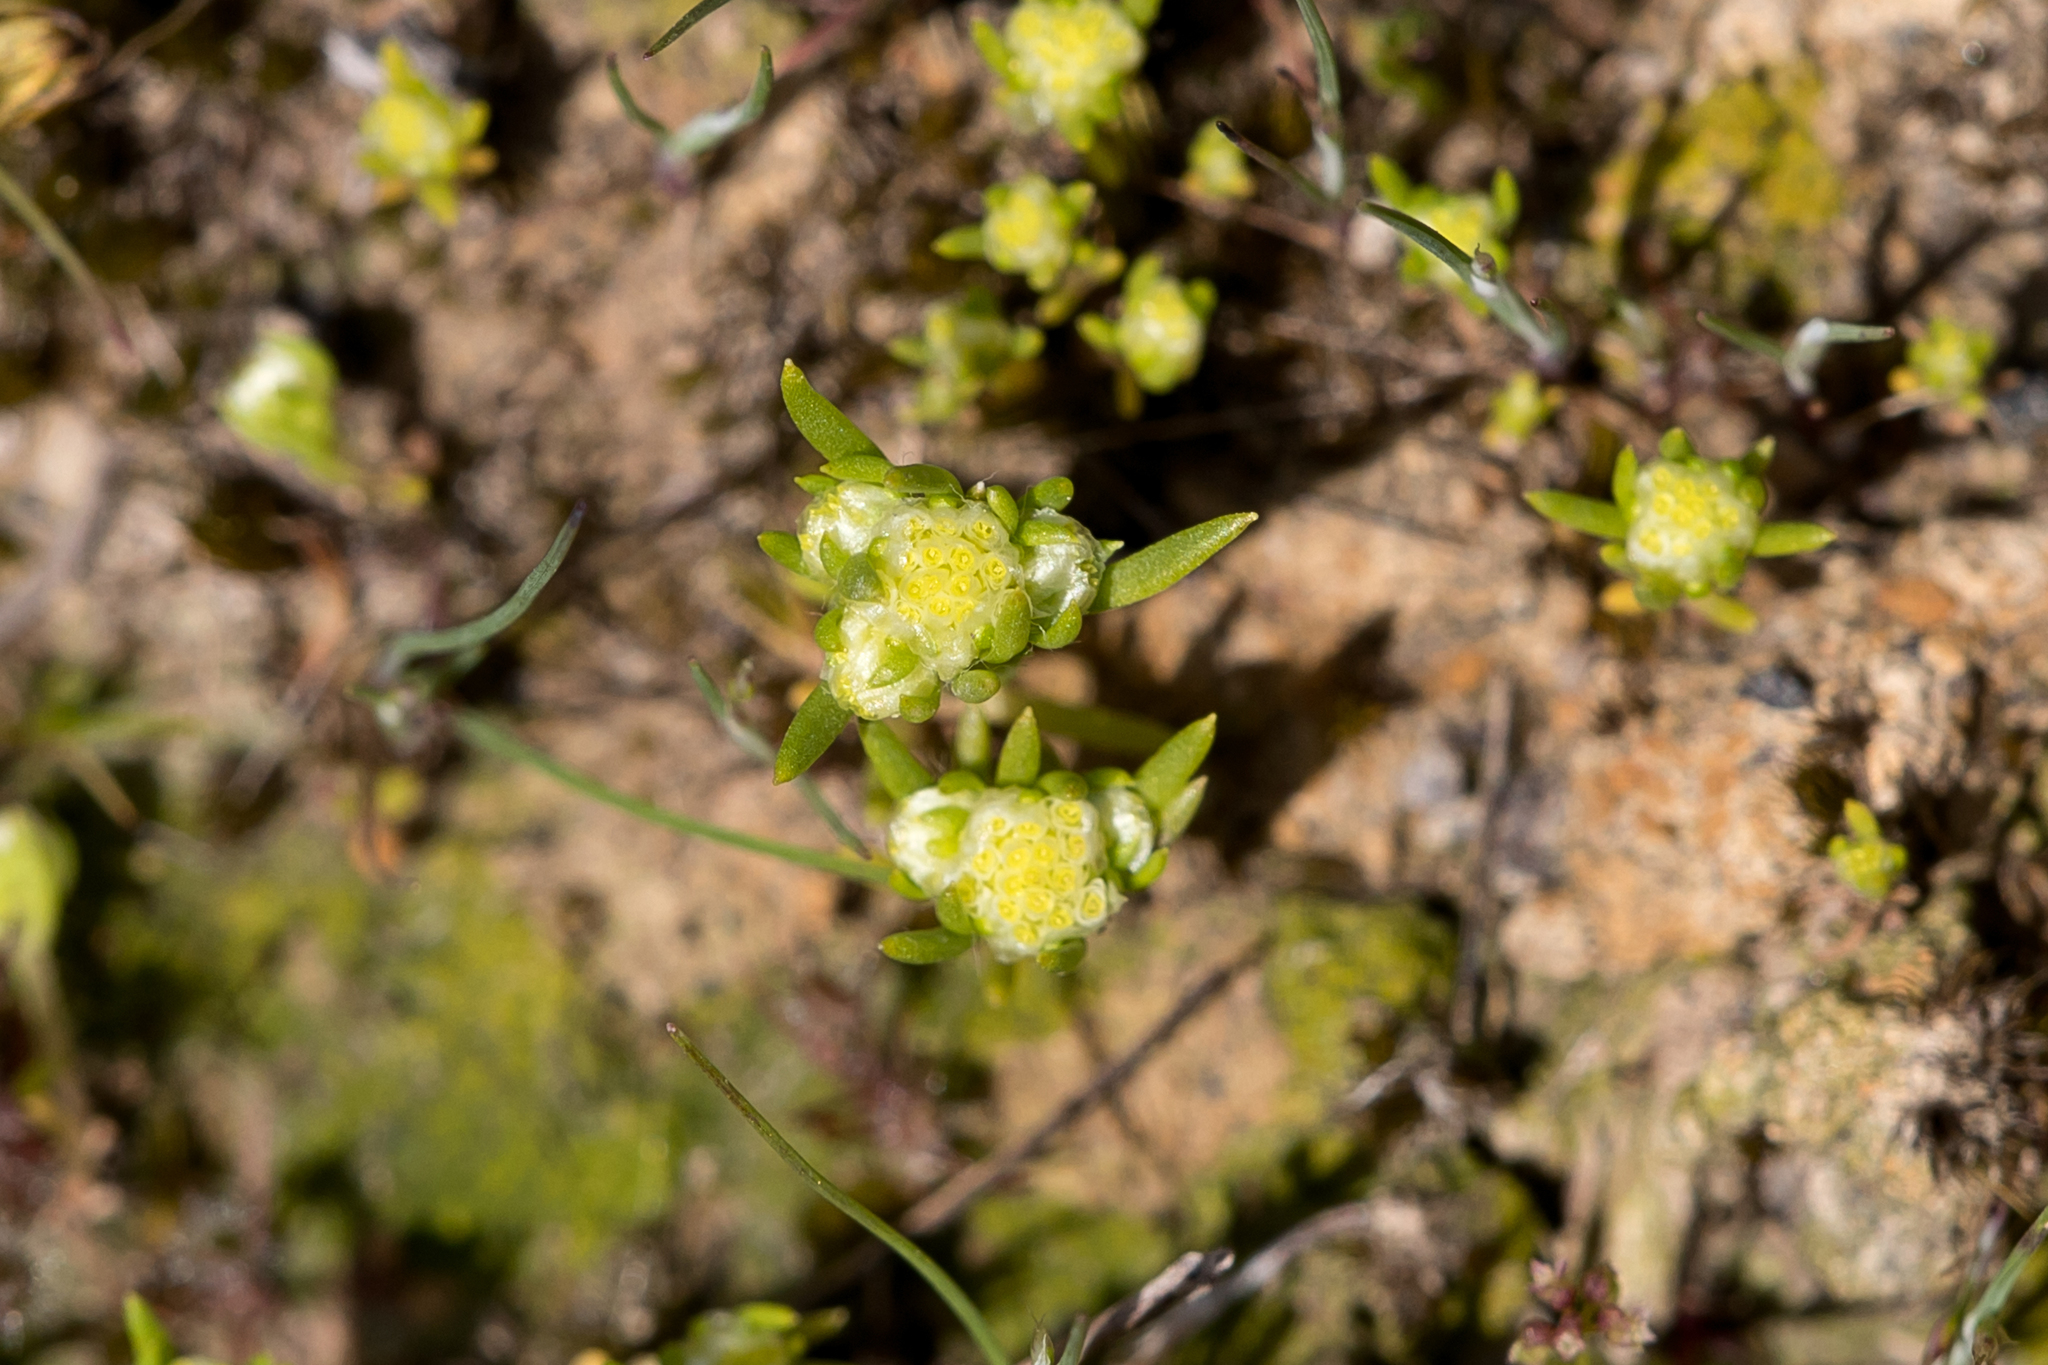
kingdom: Plantae
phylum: Tracheophyta
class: Magnoliopsida
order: Asterales
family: Asteraceae
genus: Siloxerus
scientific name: Siloxerus multiflorus
